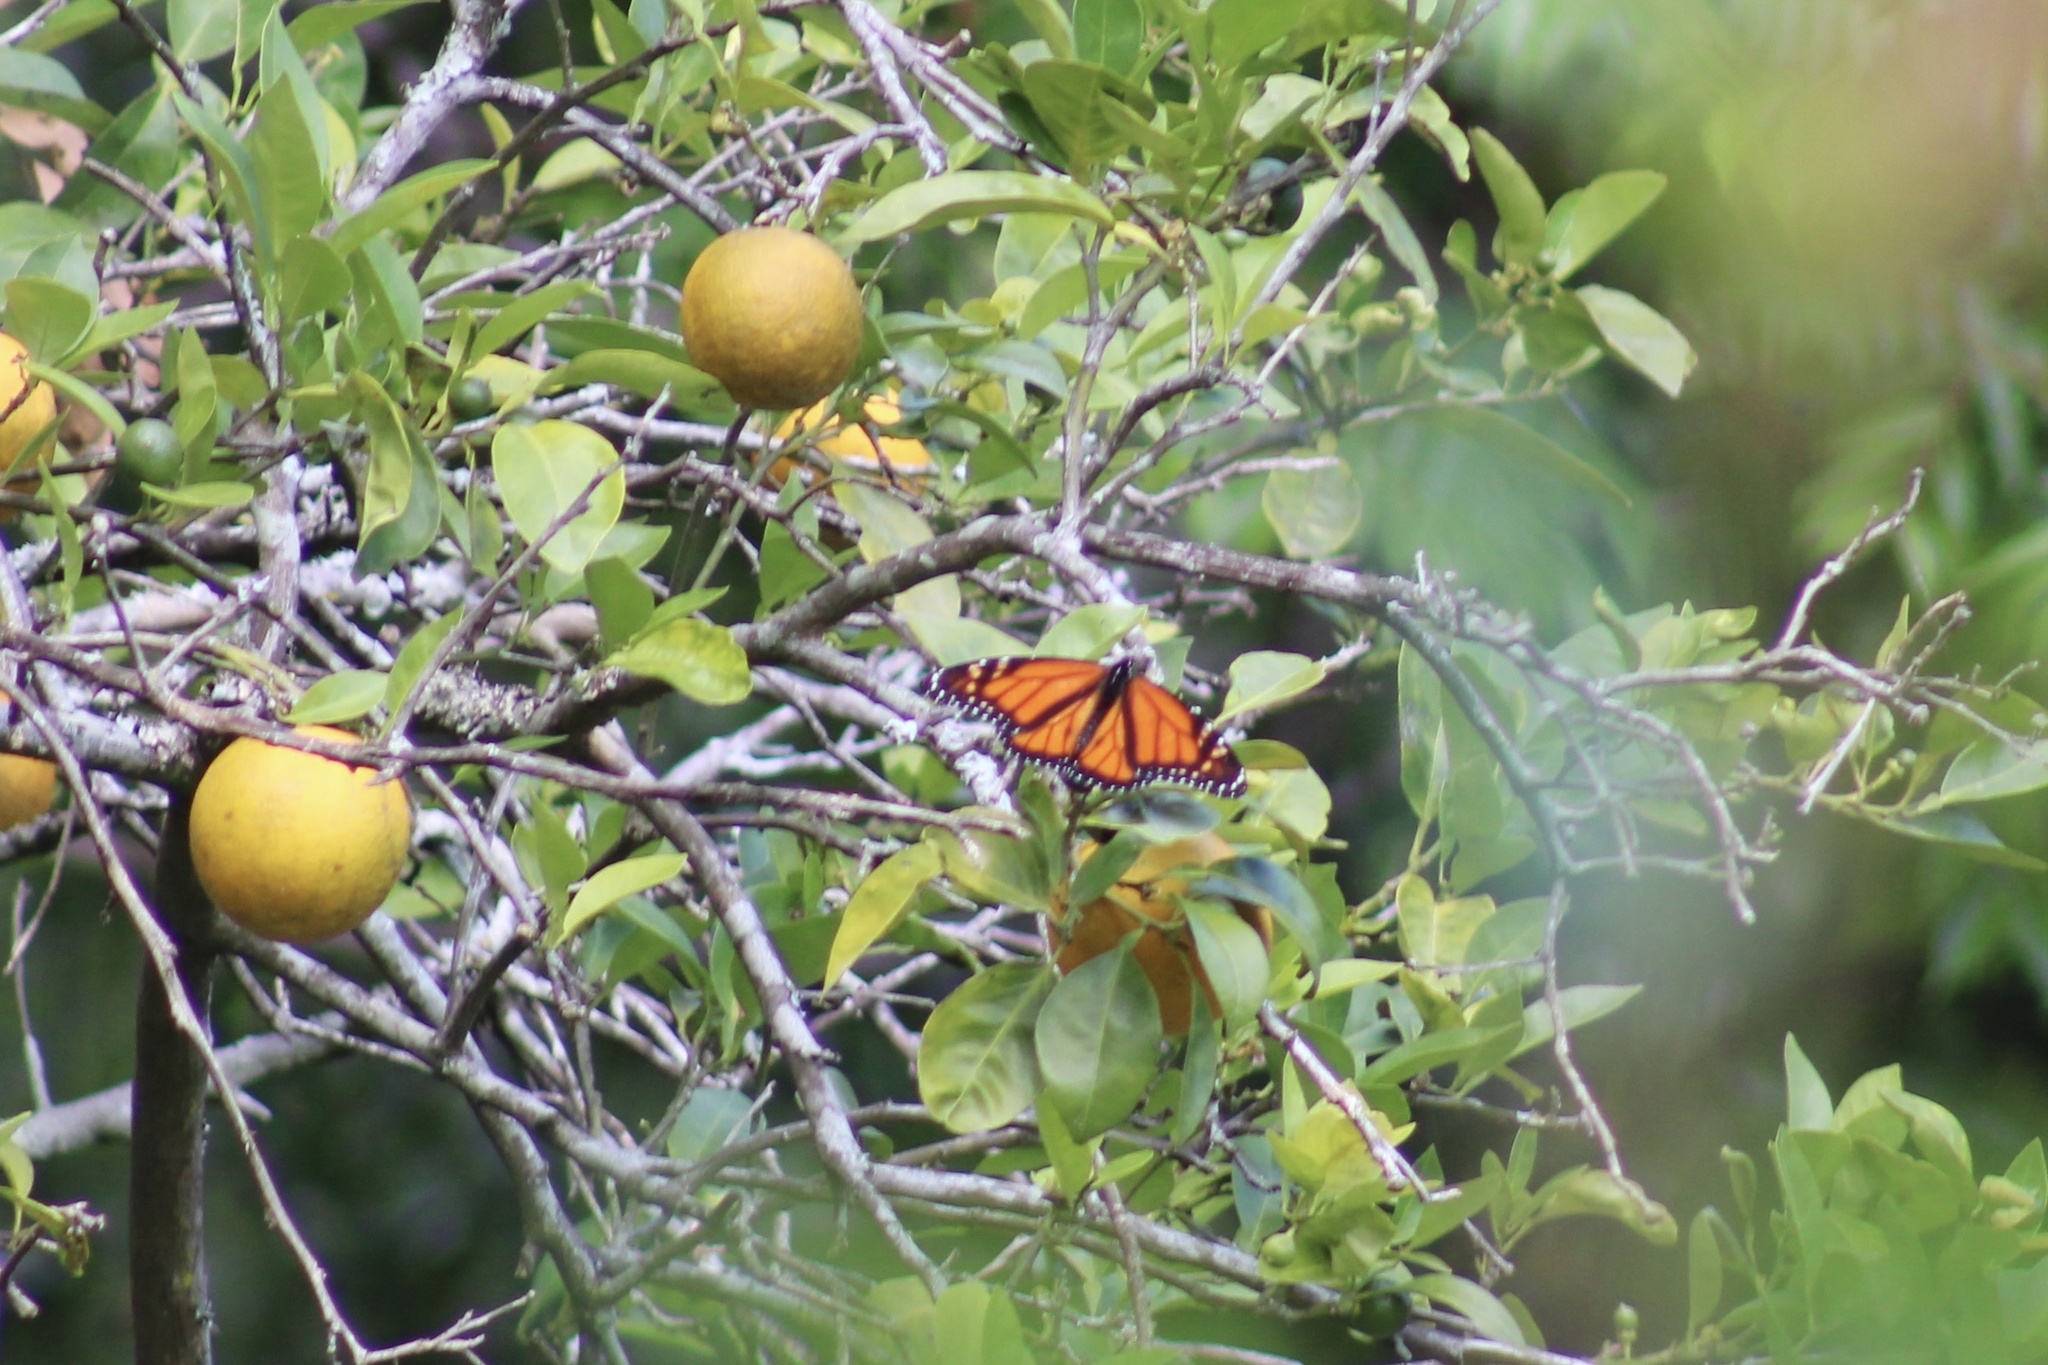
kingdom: Animalia
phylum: Arthropoda
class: Insecta
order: Lepidoptera
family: Nymphalidae
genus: Danaus
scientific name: Danaus plexippus
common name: Monarch
